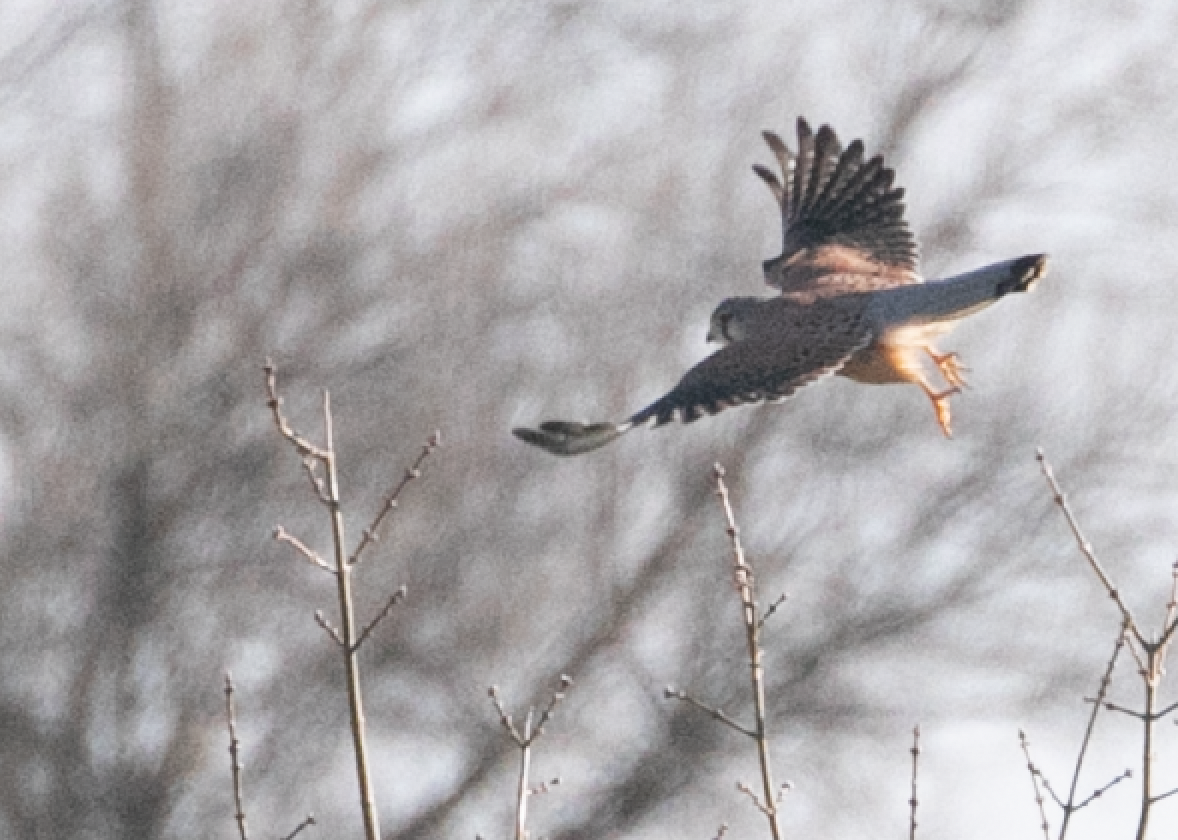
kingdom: Animalia
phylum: Chordata
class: Aves
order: Falconiformes
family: Falconidae
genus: Falco
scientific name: Falco tinnunculus
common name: Common kestrel
